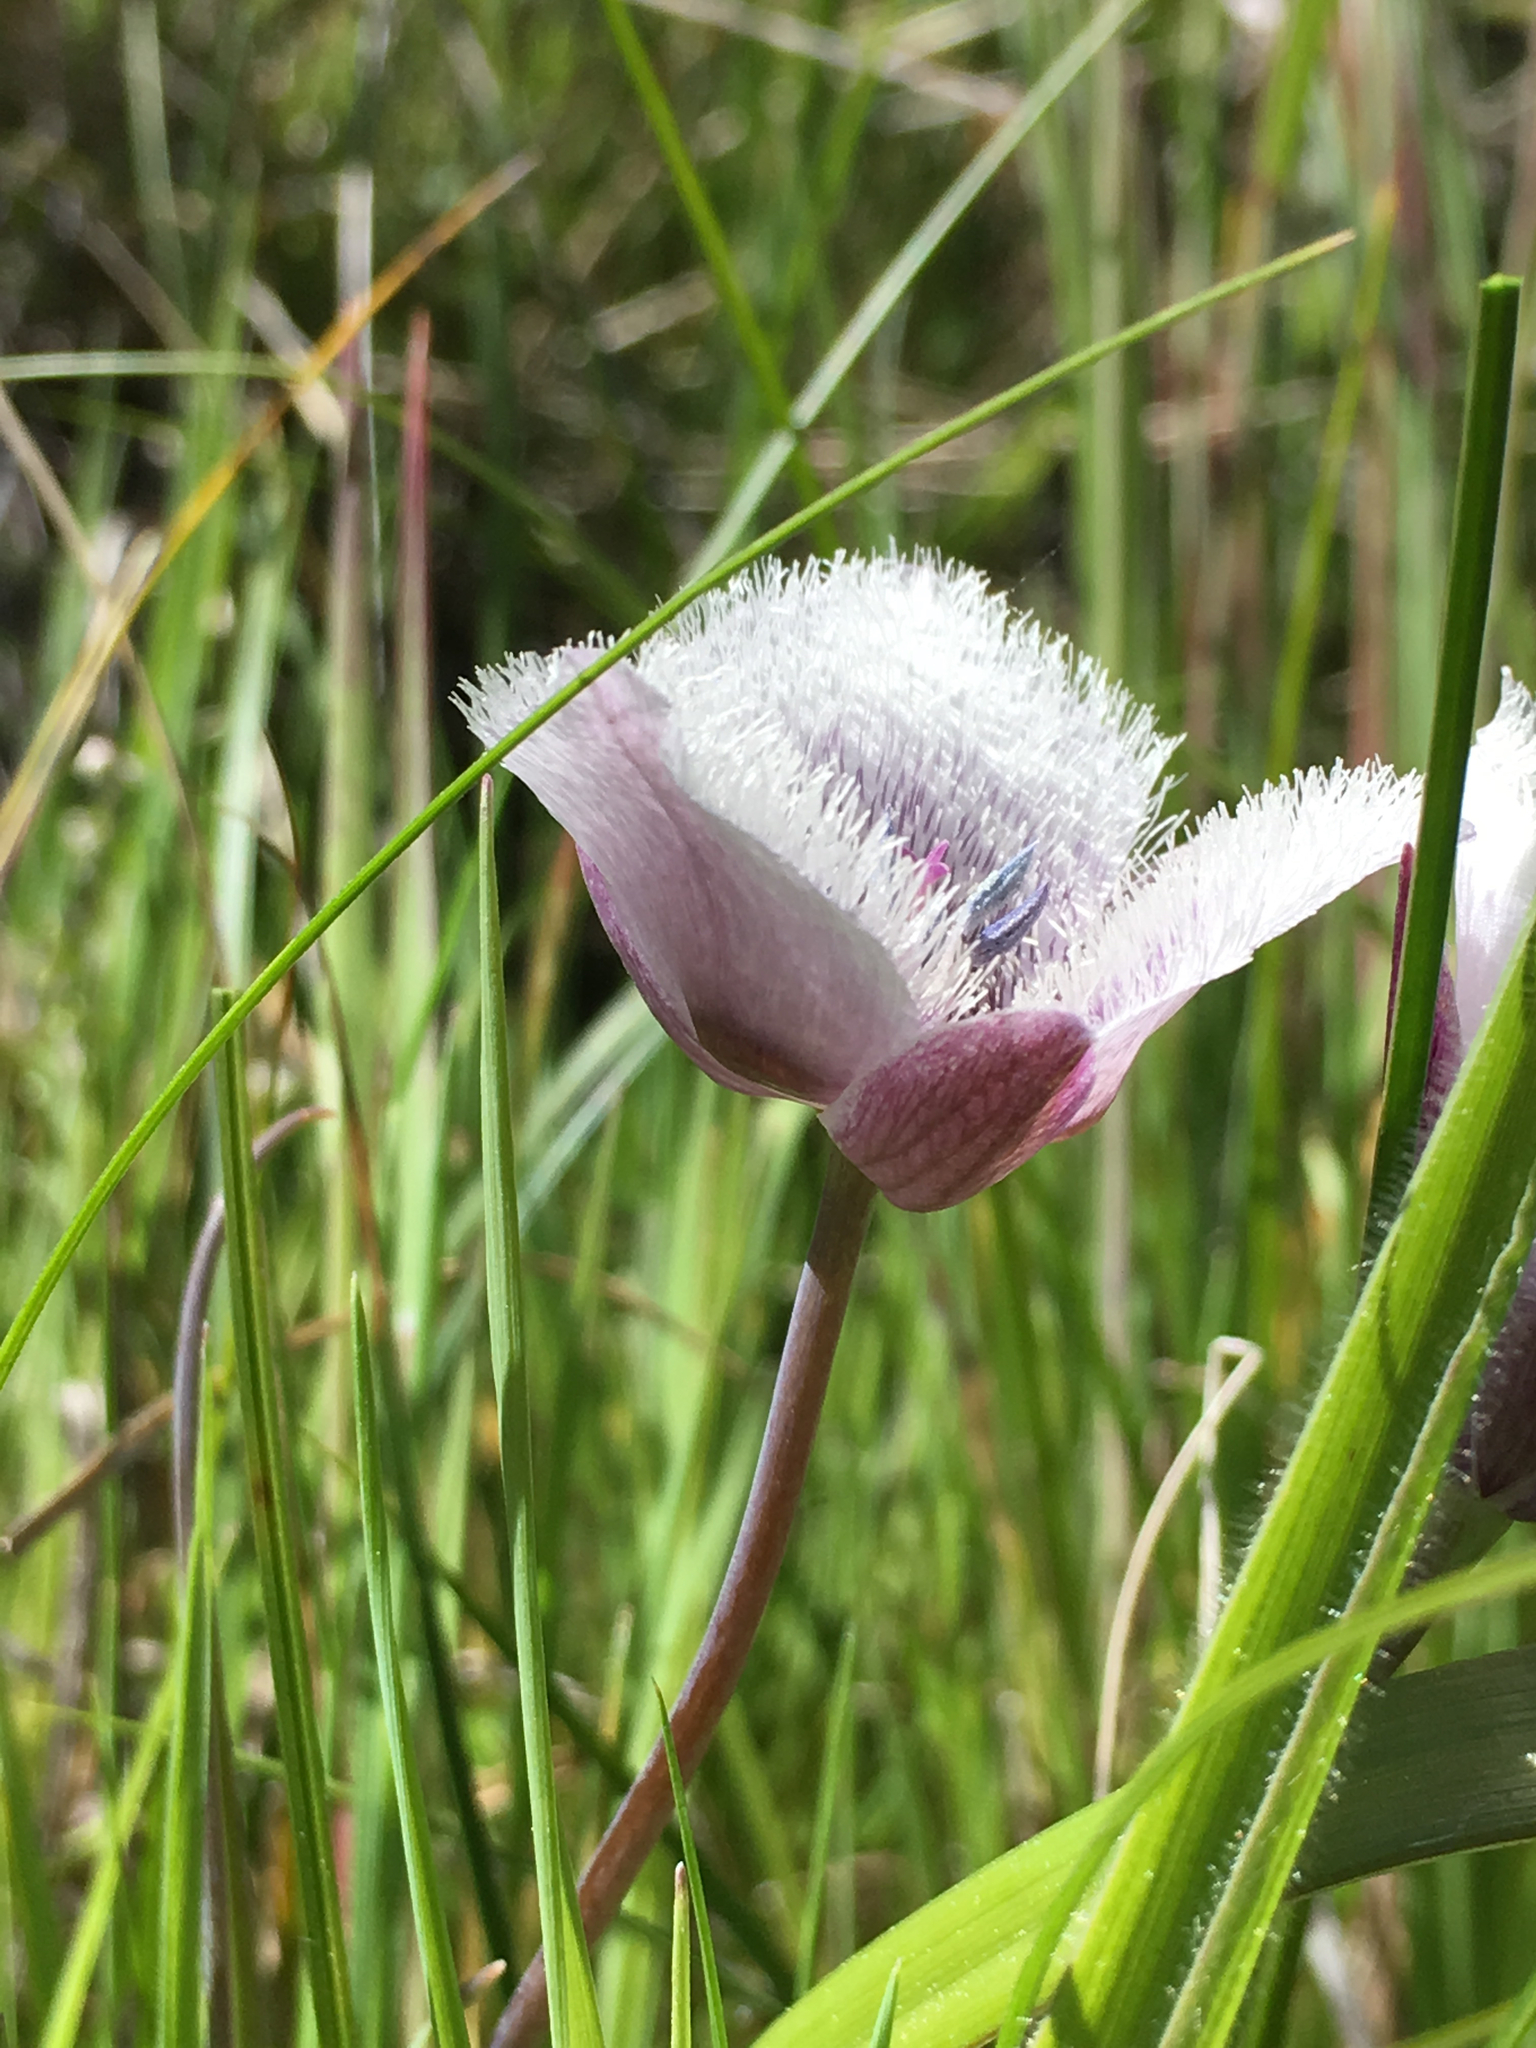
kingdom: Plantae
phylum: Tracheophyta
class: Liliopsida
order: Liliales
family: Liliaceae
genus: Calochortus
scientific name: Calochortus tolmiei
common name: Pussy-ears
